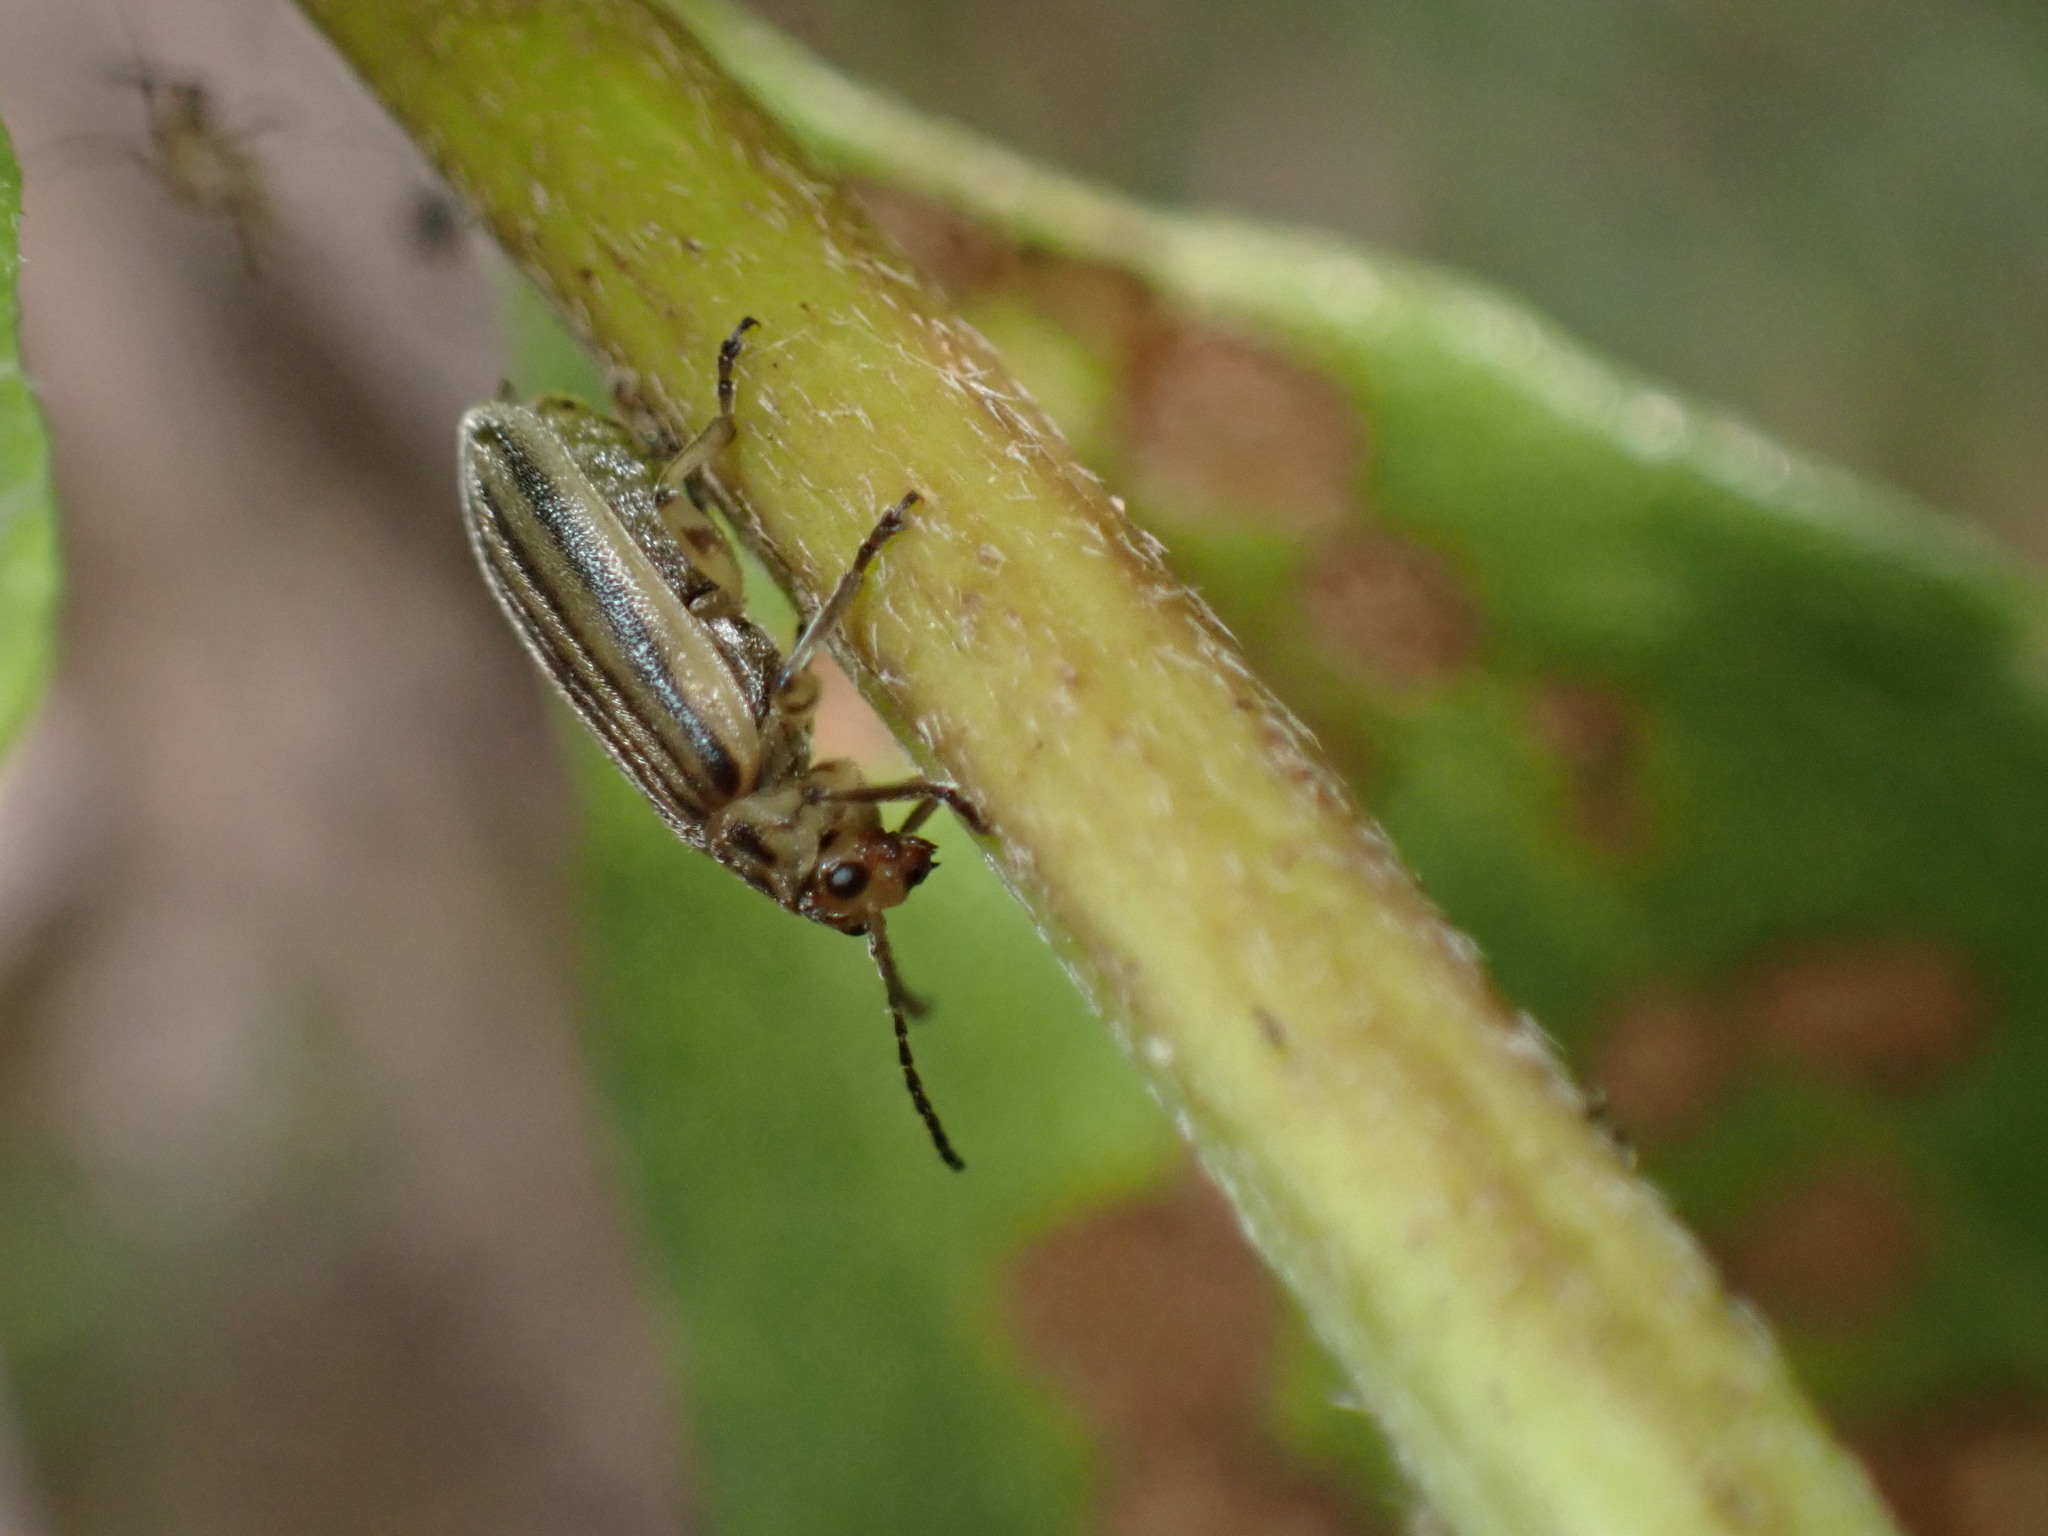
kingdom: Animalia
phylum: Arthropoda
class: Insecta
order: Coleoptera
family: Chrysomelidae
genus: Ophraella
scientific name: Ophraella notulata
